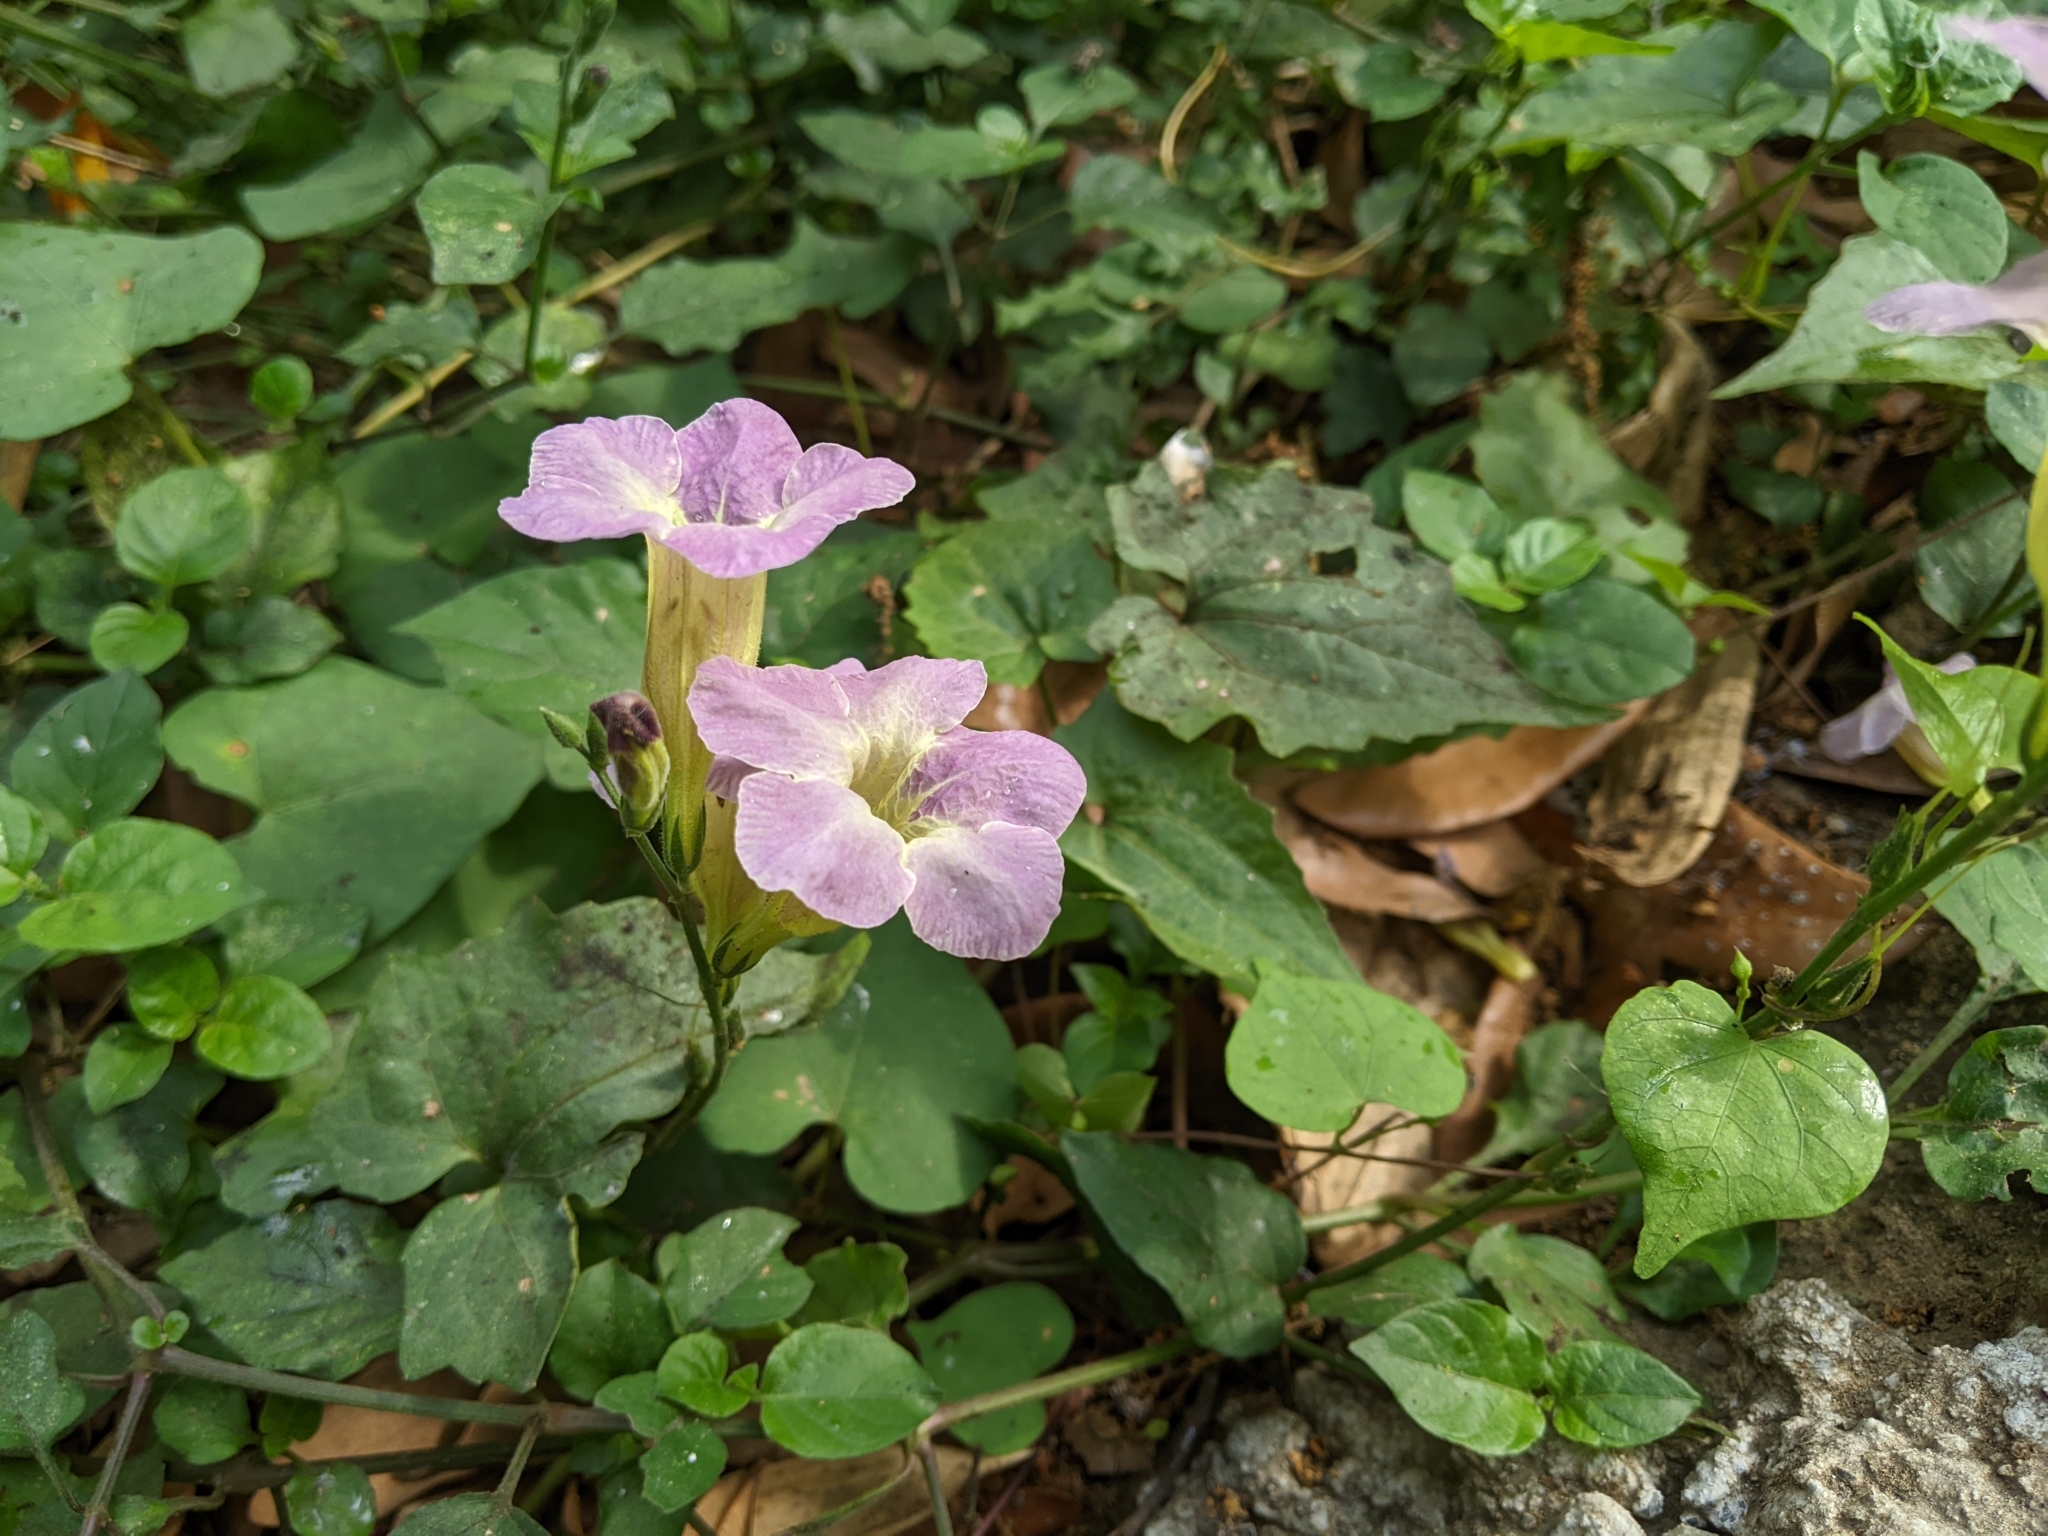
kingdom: Plantae
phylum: Tracheophyta
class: Magnoliopsida
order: Lamiales
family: Acanthaceae
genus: Asystasia
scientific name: Asystasia gangetica
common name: Chinese violet
